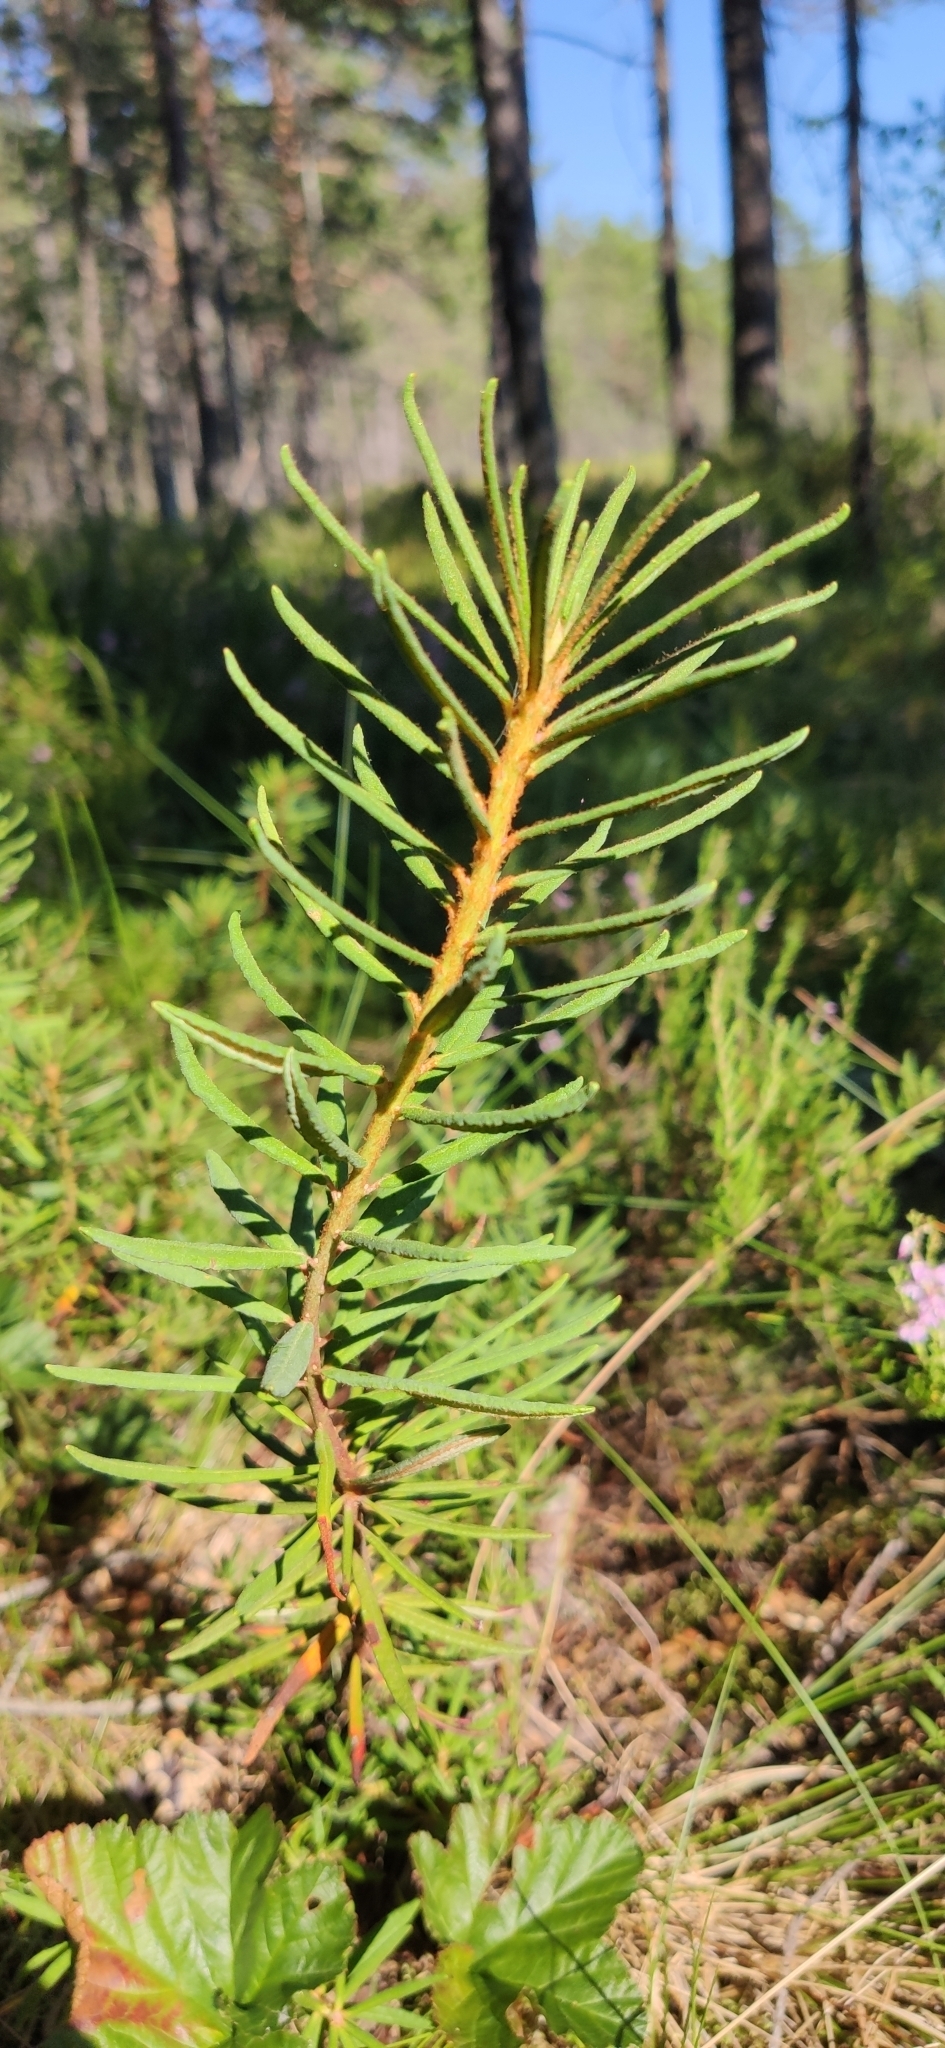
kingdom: Plantae
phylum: Tracheophyta
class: Magnoliopsida
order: Ericales
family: Ericaceae
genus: Rhododendron
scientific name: Rhododendron tomentosum
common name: Marsh labrador tea
